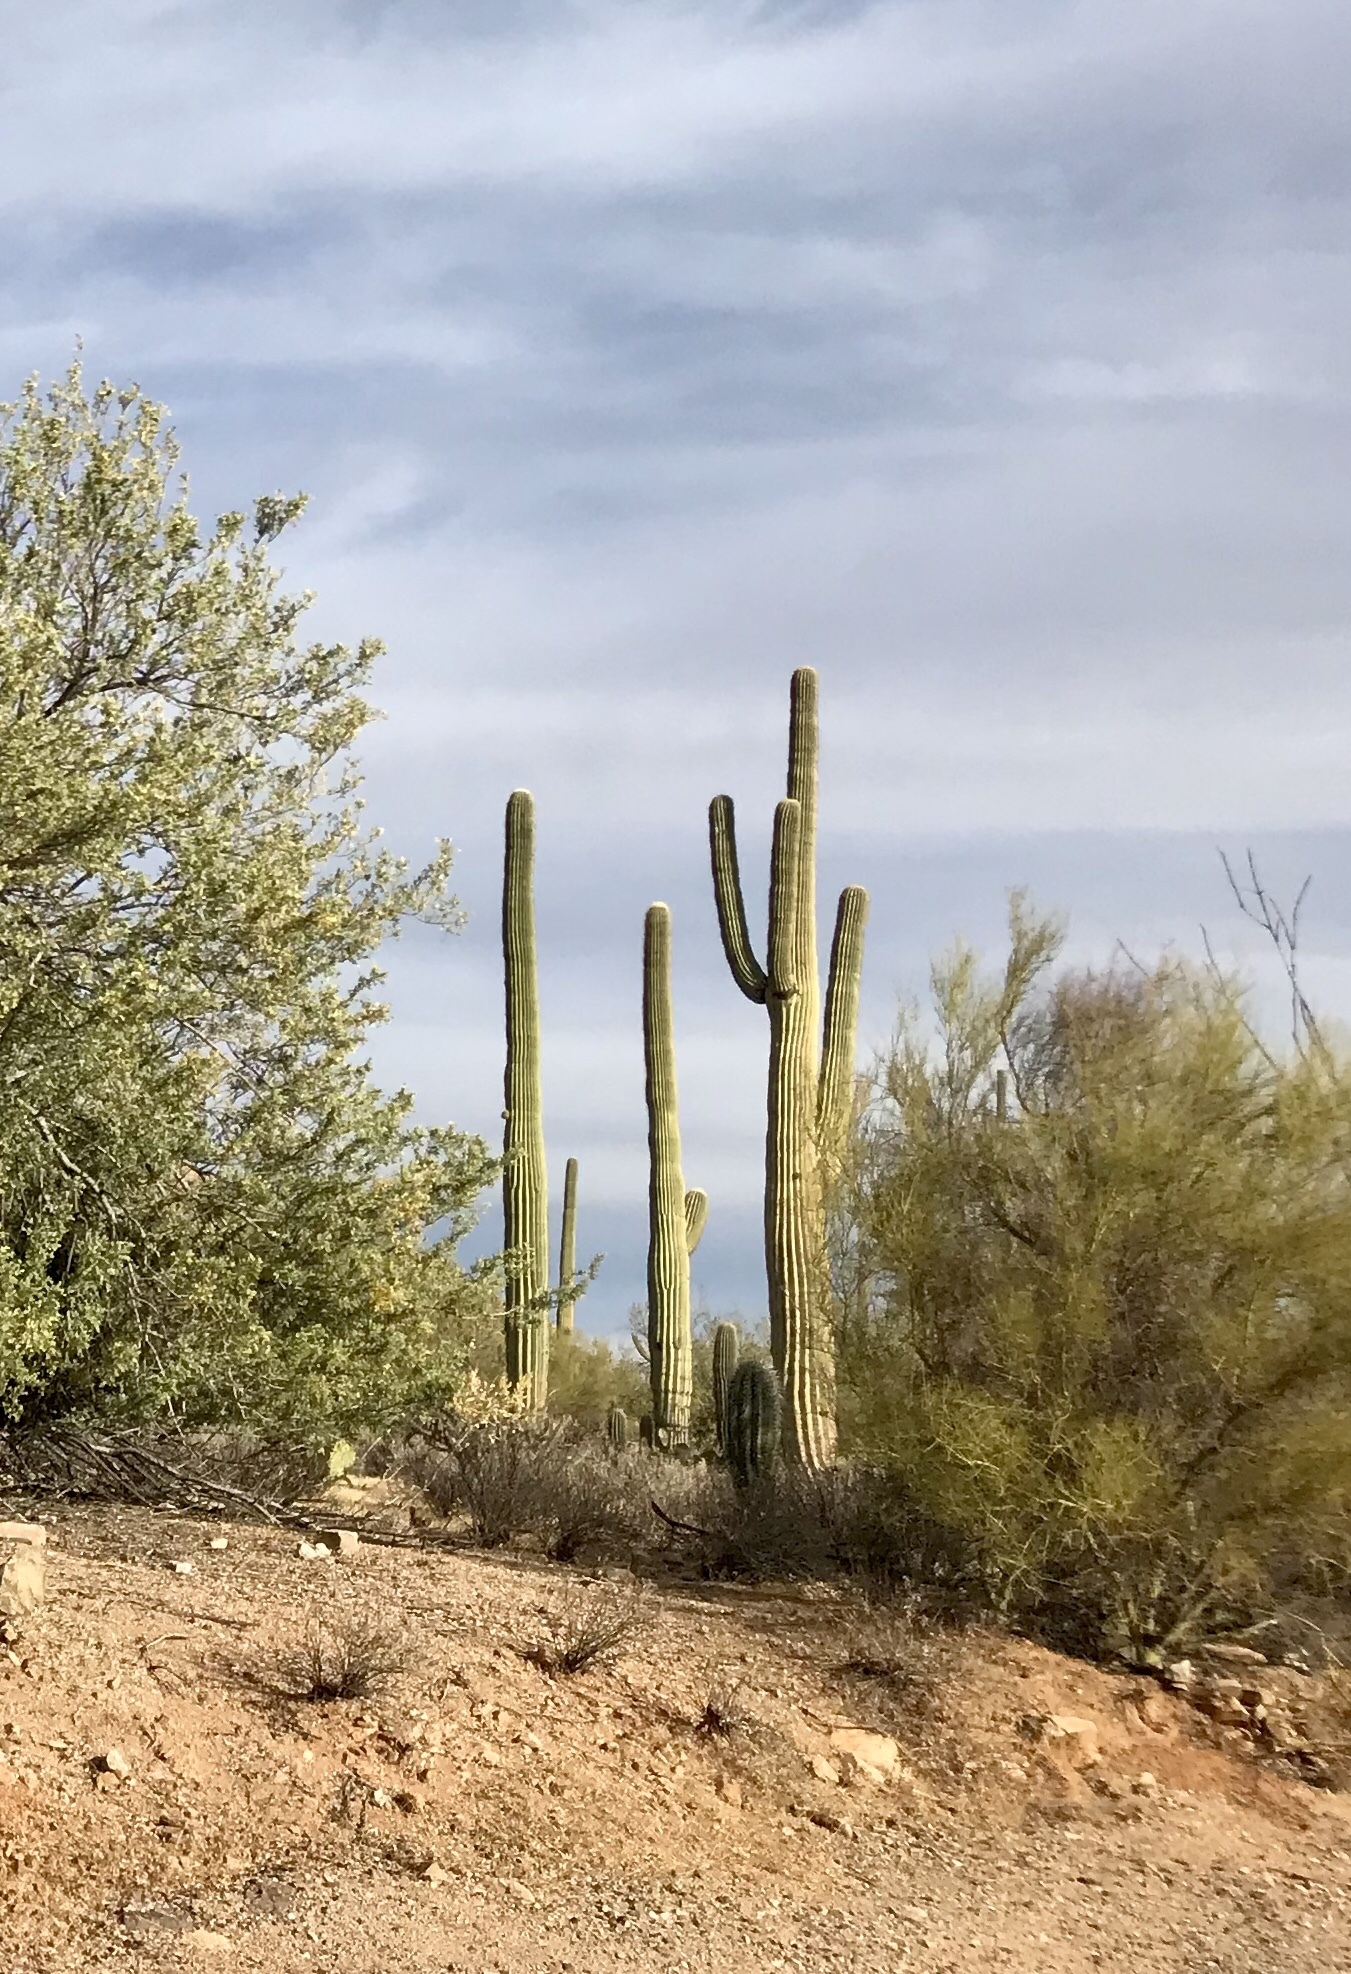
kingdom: Plantae
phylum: Tracheophyta
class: Magnoliopsida
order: Caryophyllales
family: Cactaceae
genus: Carnegiea
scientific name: Carnegiea gigantea
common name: Saguaro
